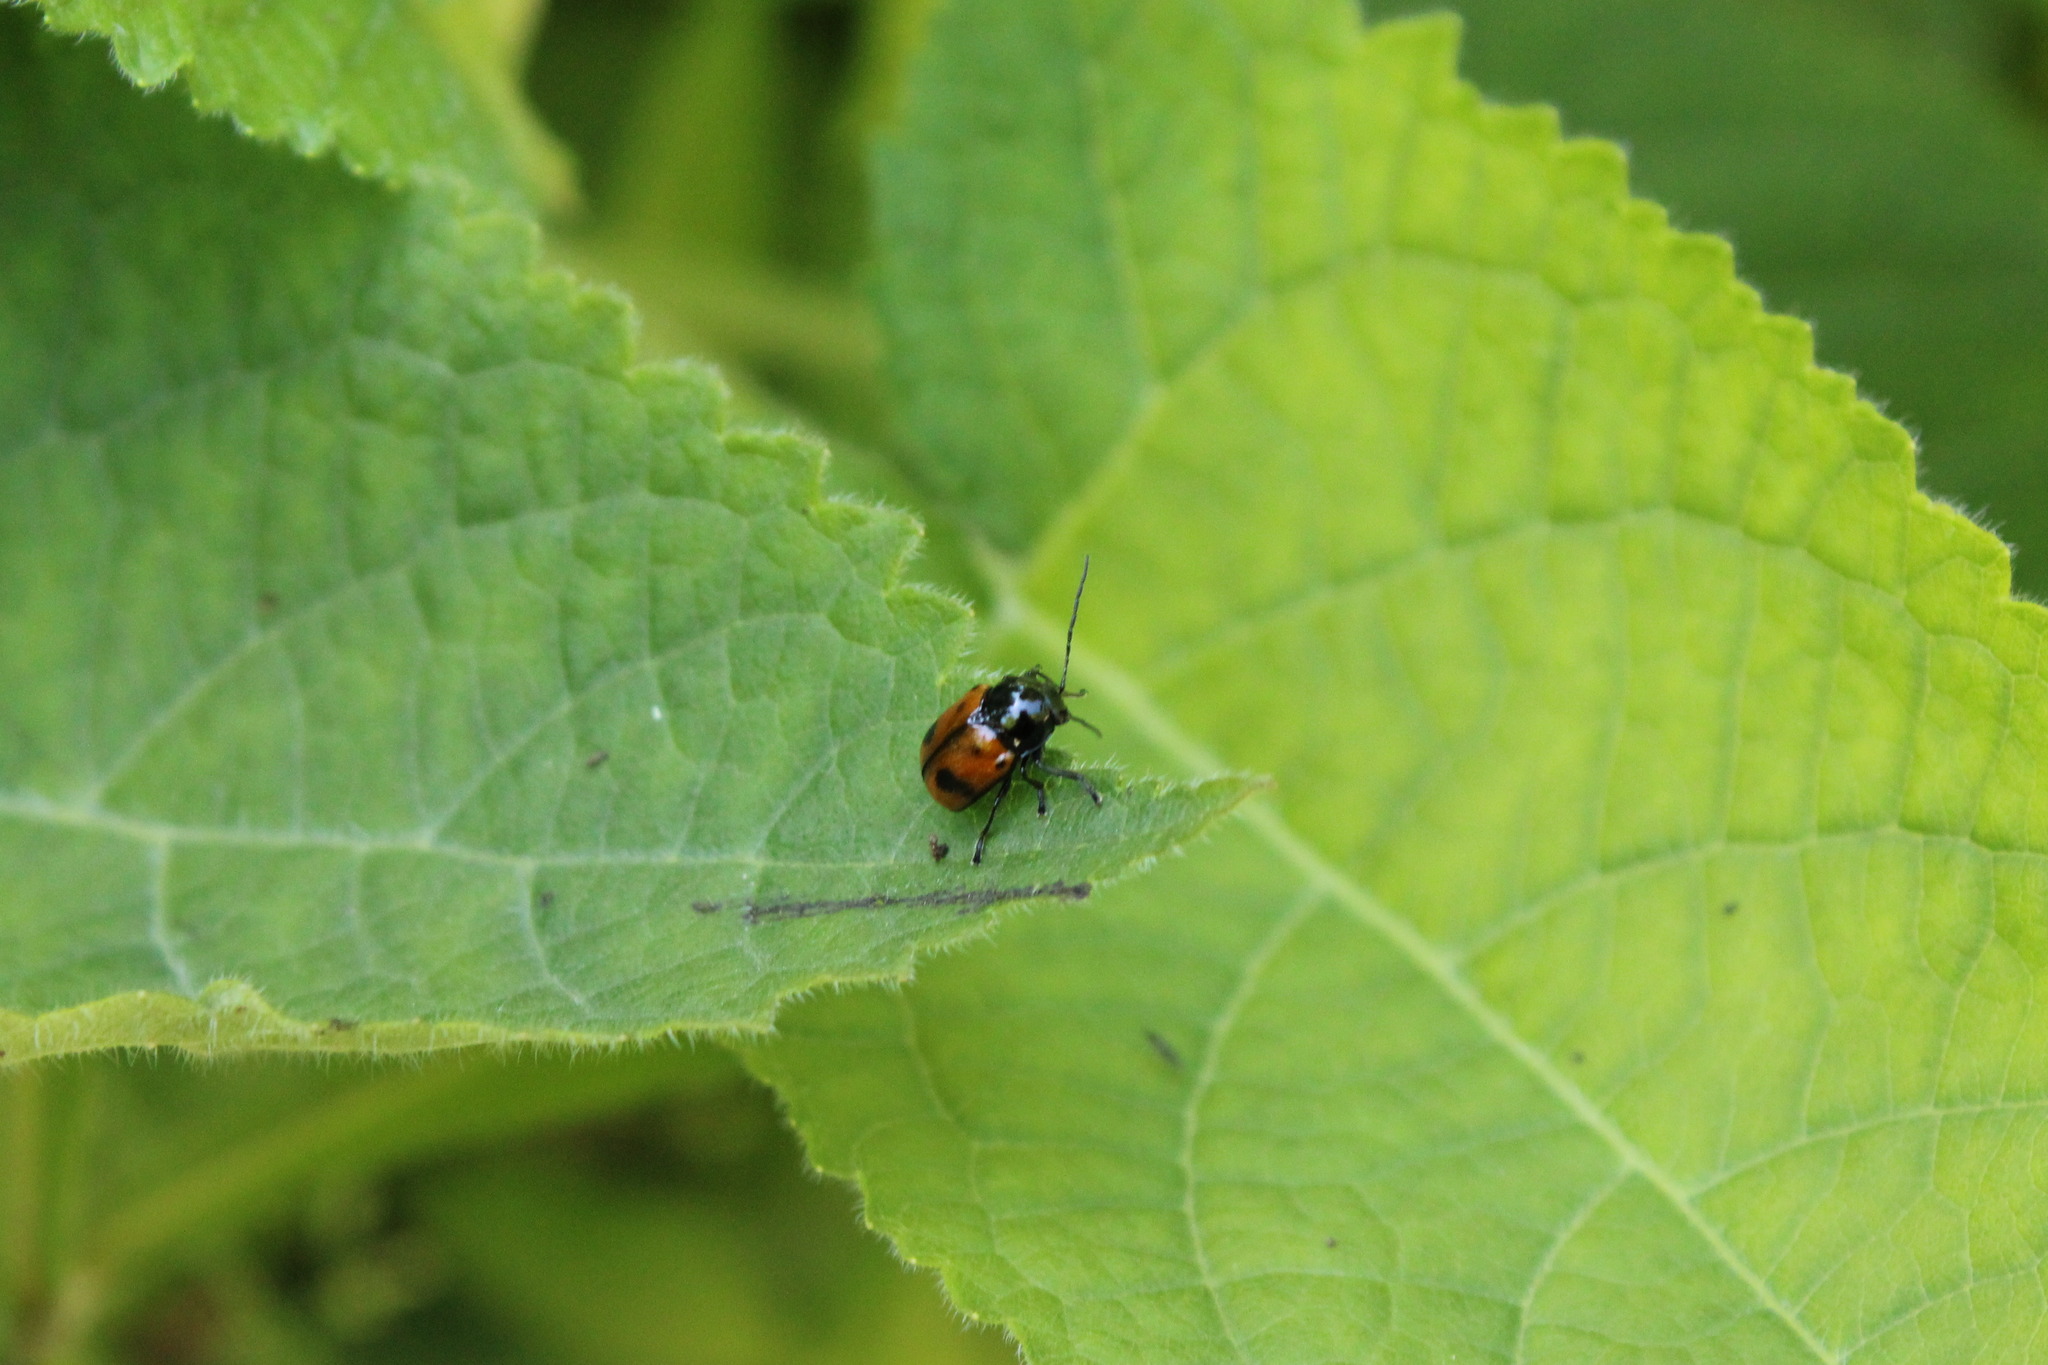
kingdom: Animalia
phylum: Arthropoda
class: Insecta
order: Coleoptera
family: Chrysomelidae
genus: Chiridopsis
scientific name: Chiridopsis bipunctata
